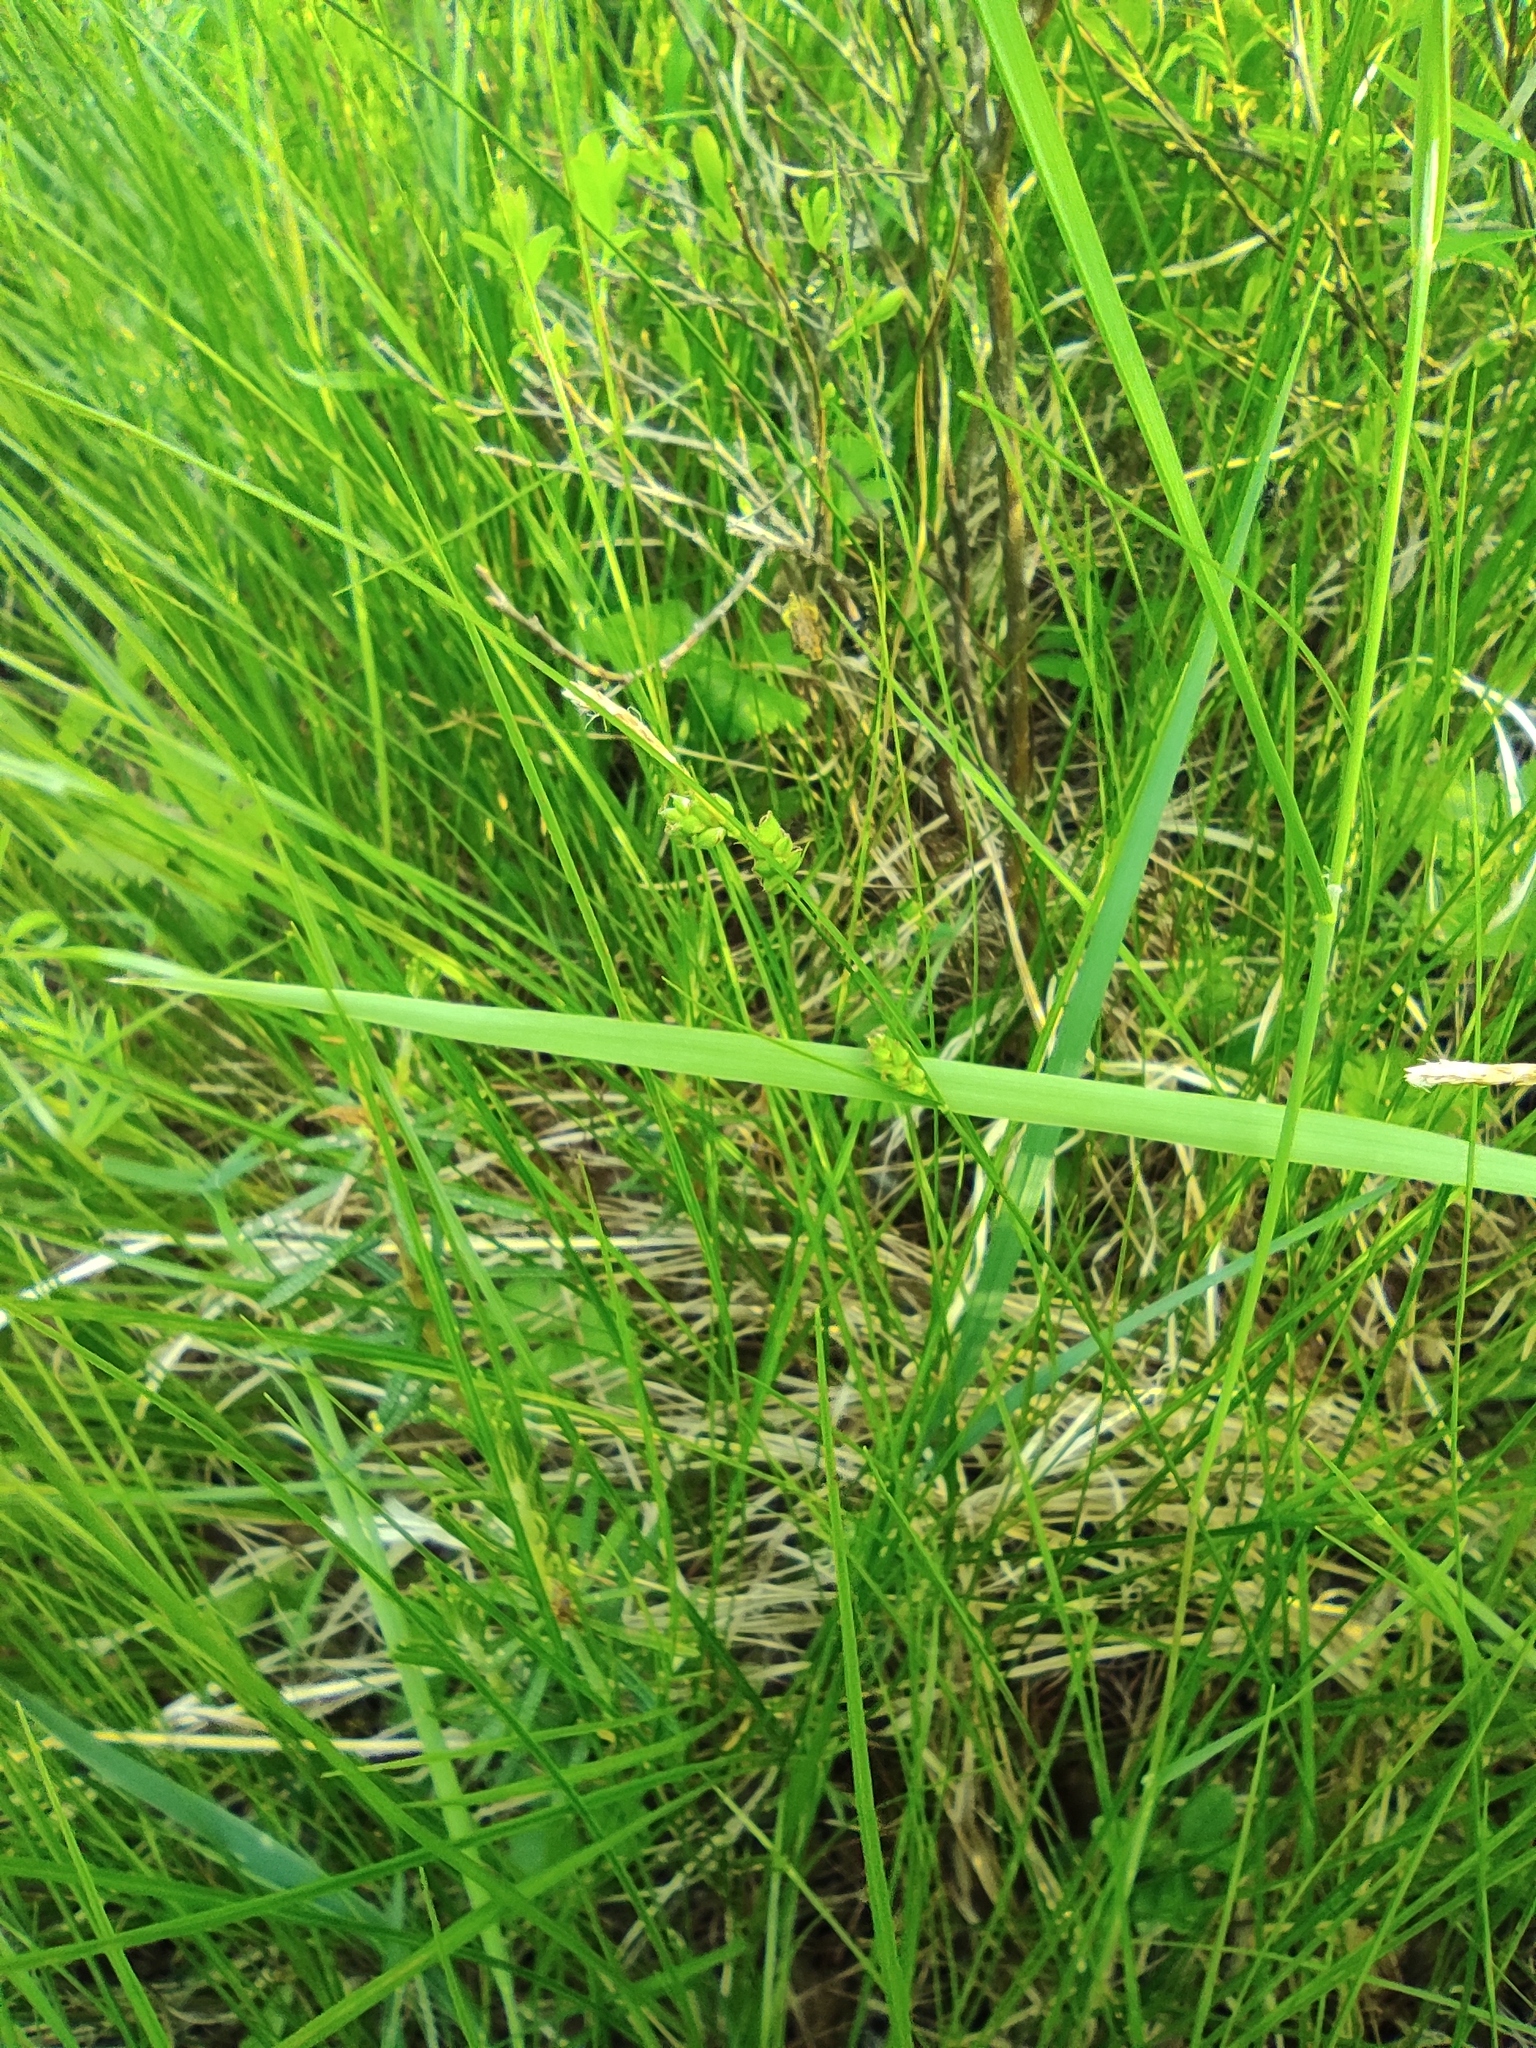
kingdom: Plantae
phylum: Tracheophyta
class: Liliopsida
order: Poales
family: Cyperaceae
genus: Carex
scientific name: Carex globularis
